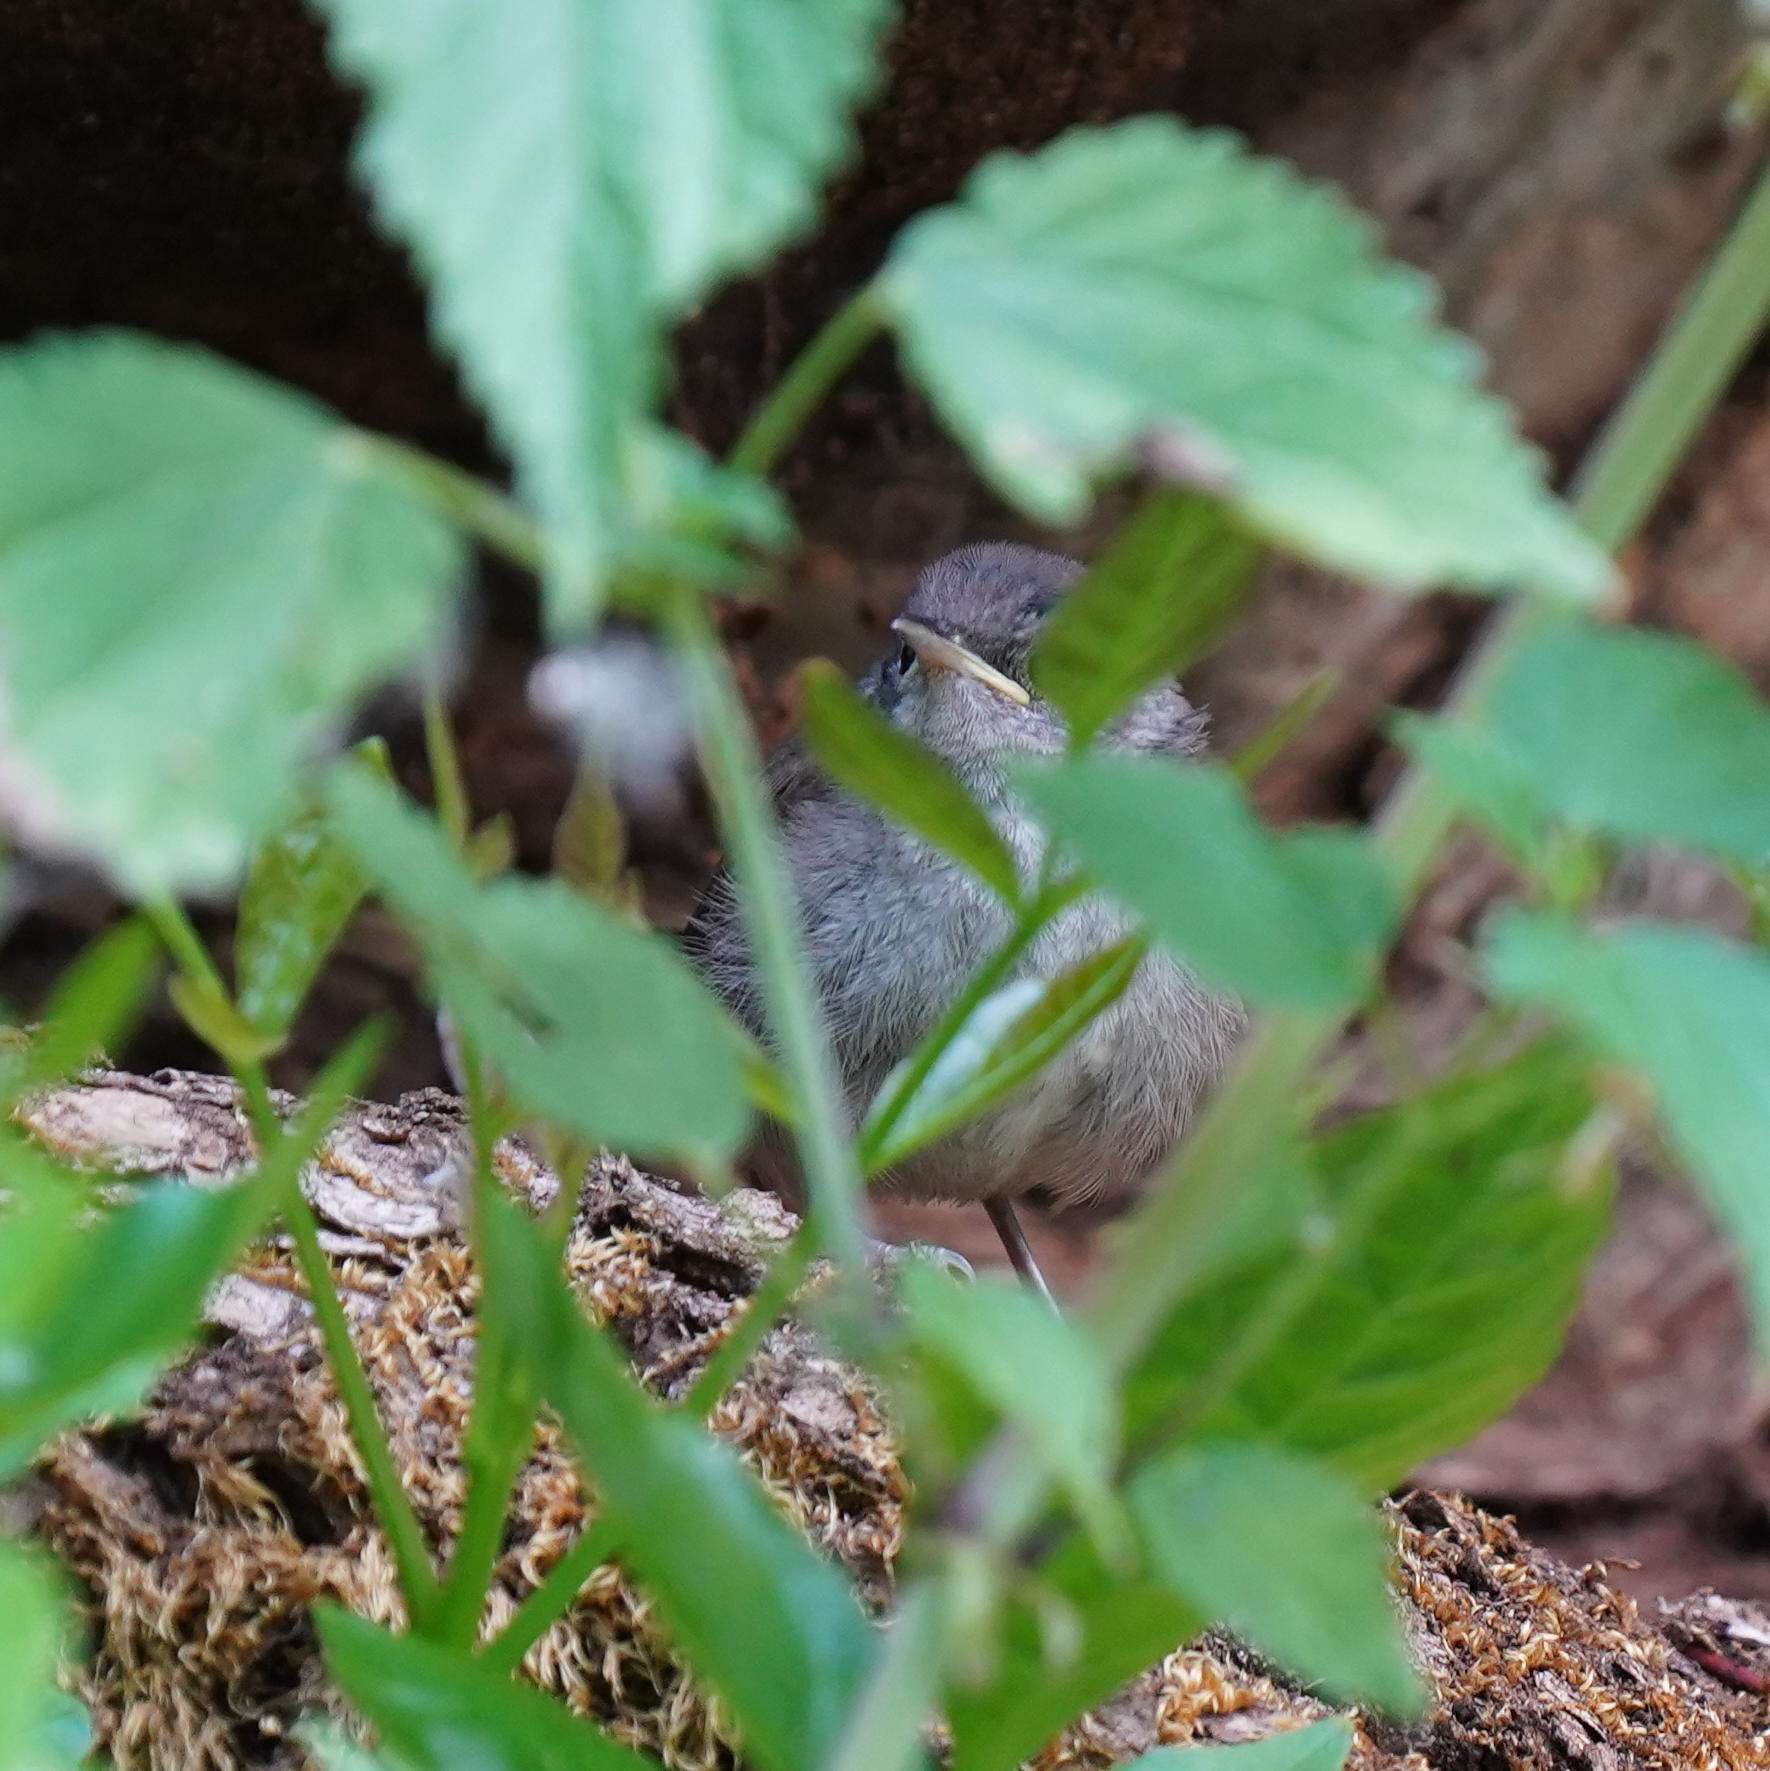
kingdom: Animalia
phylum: Chordata
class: Aves
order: Passeriformes
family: Troglodytidae
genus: Thryomanes
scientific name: Thryomanes bewickii
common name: Bewick's wren
